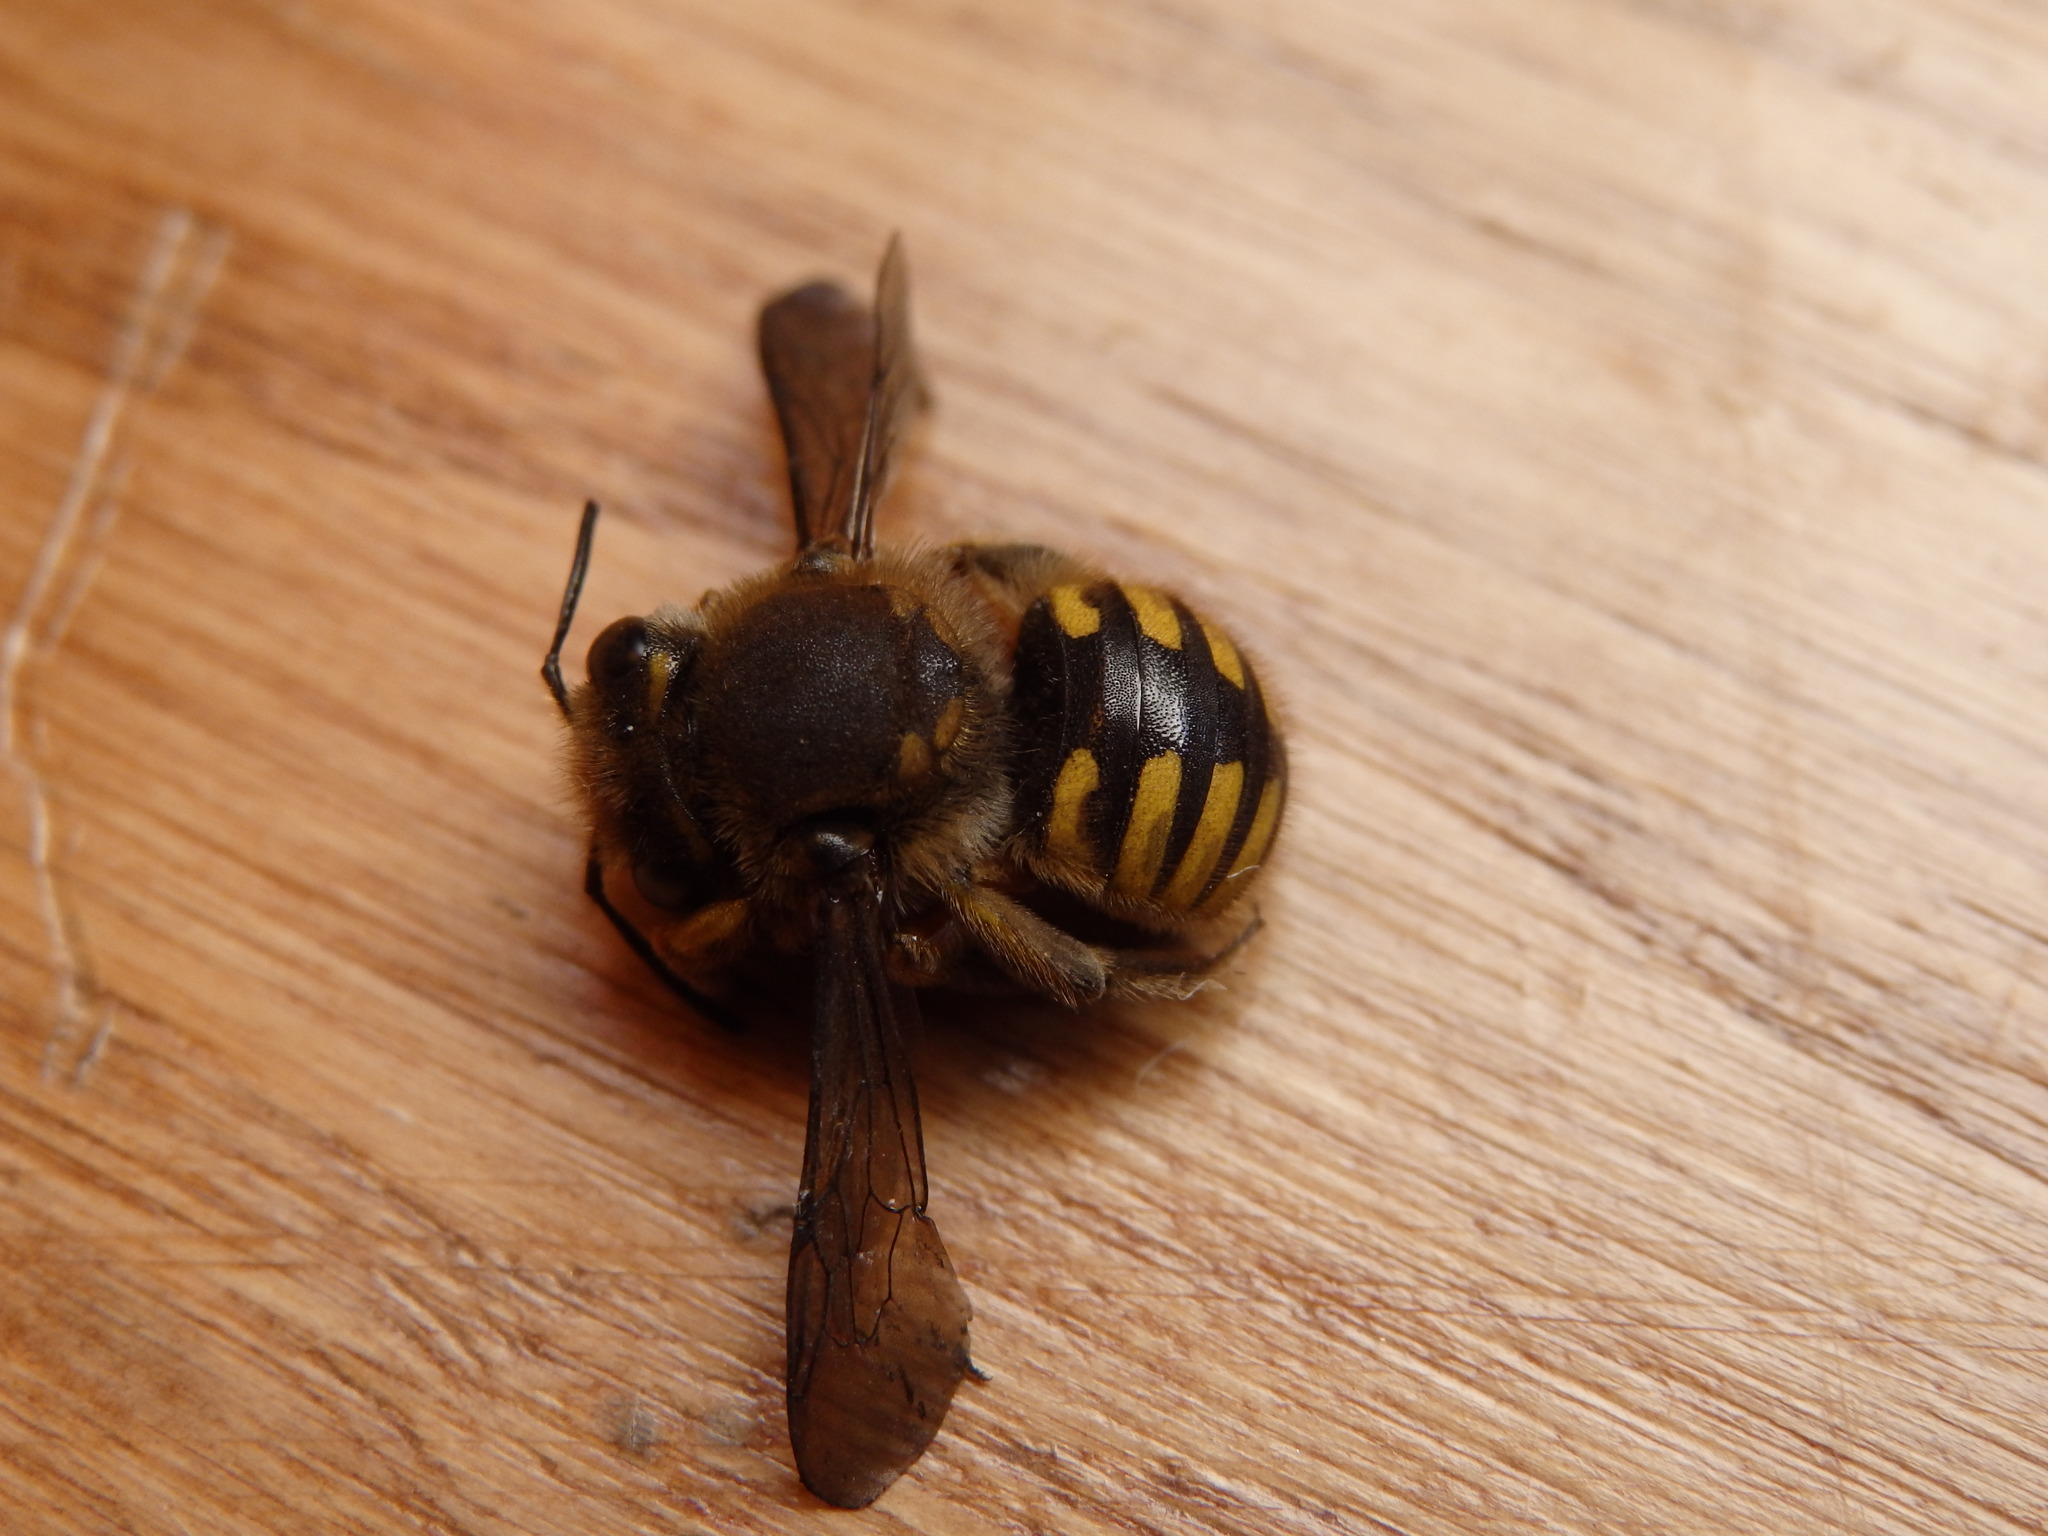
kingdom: Animalia
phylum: Arthropoda
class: Insecta
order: Hymenoptera
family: Megachilidae
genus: Anthidium
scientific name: Anthidium manicatum
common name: Wool carder bee
